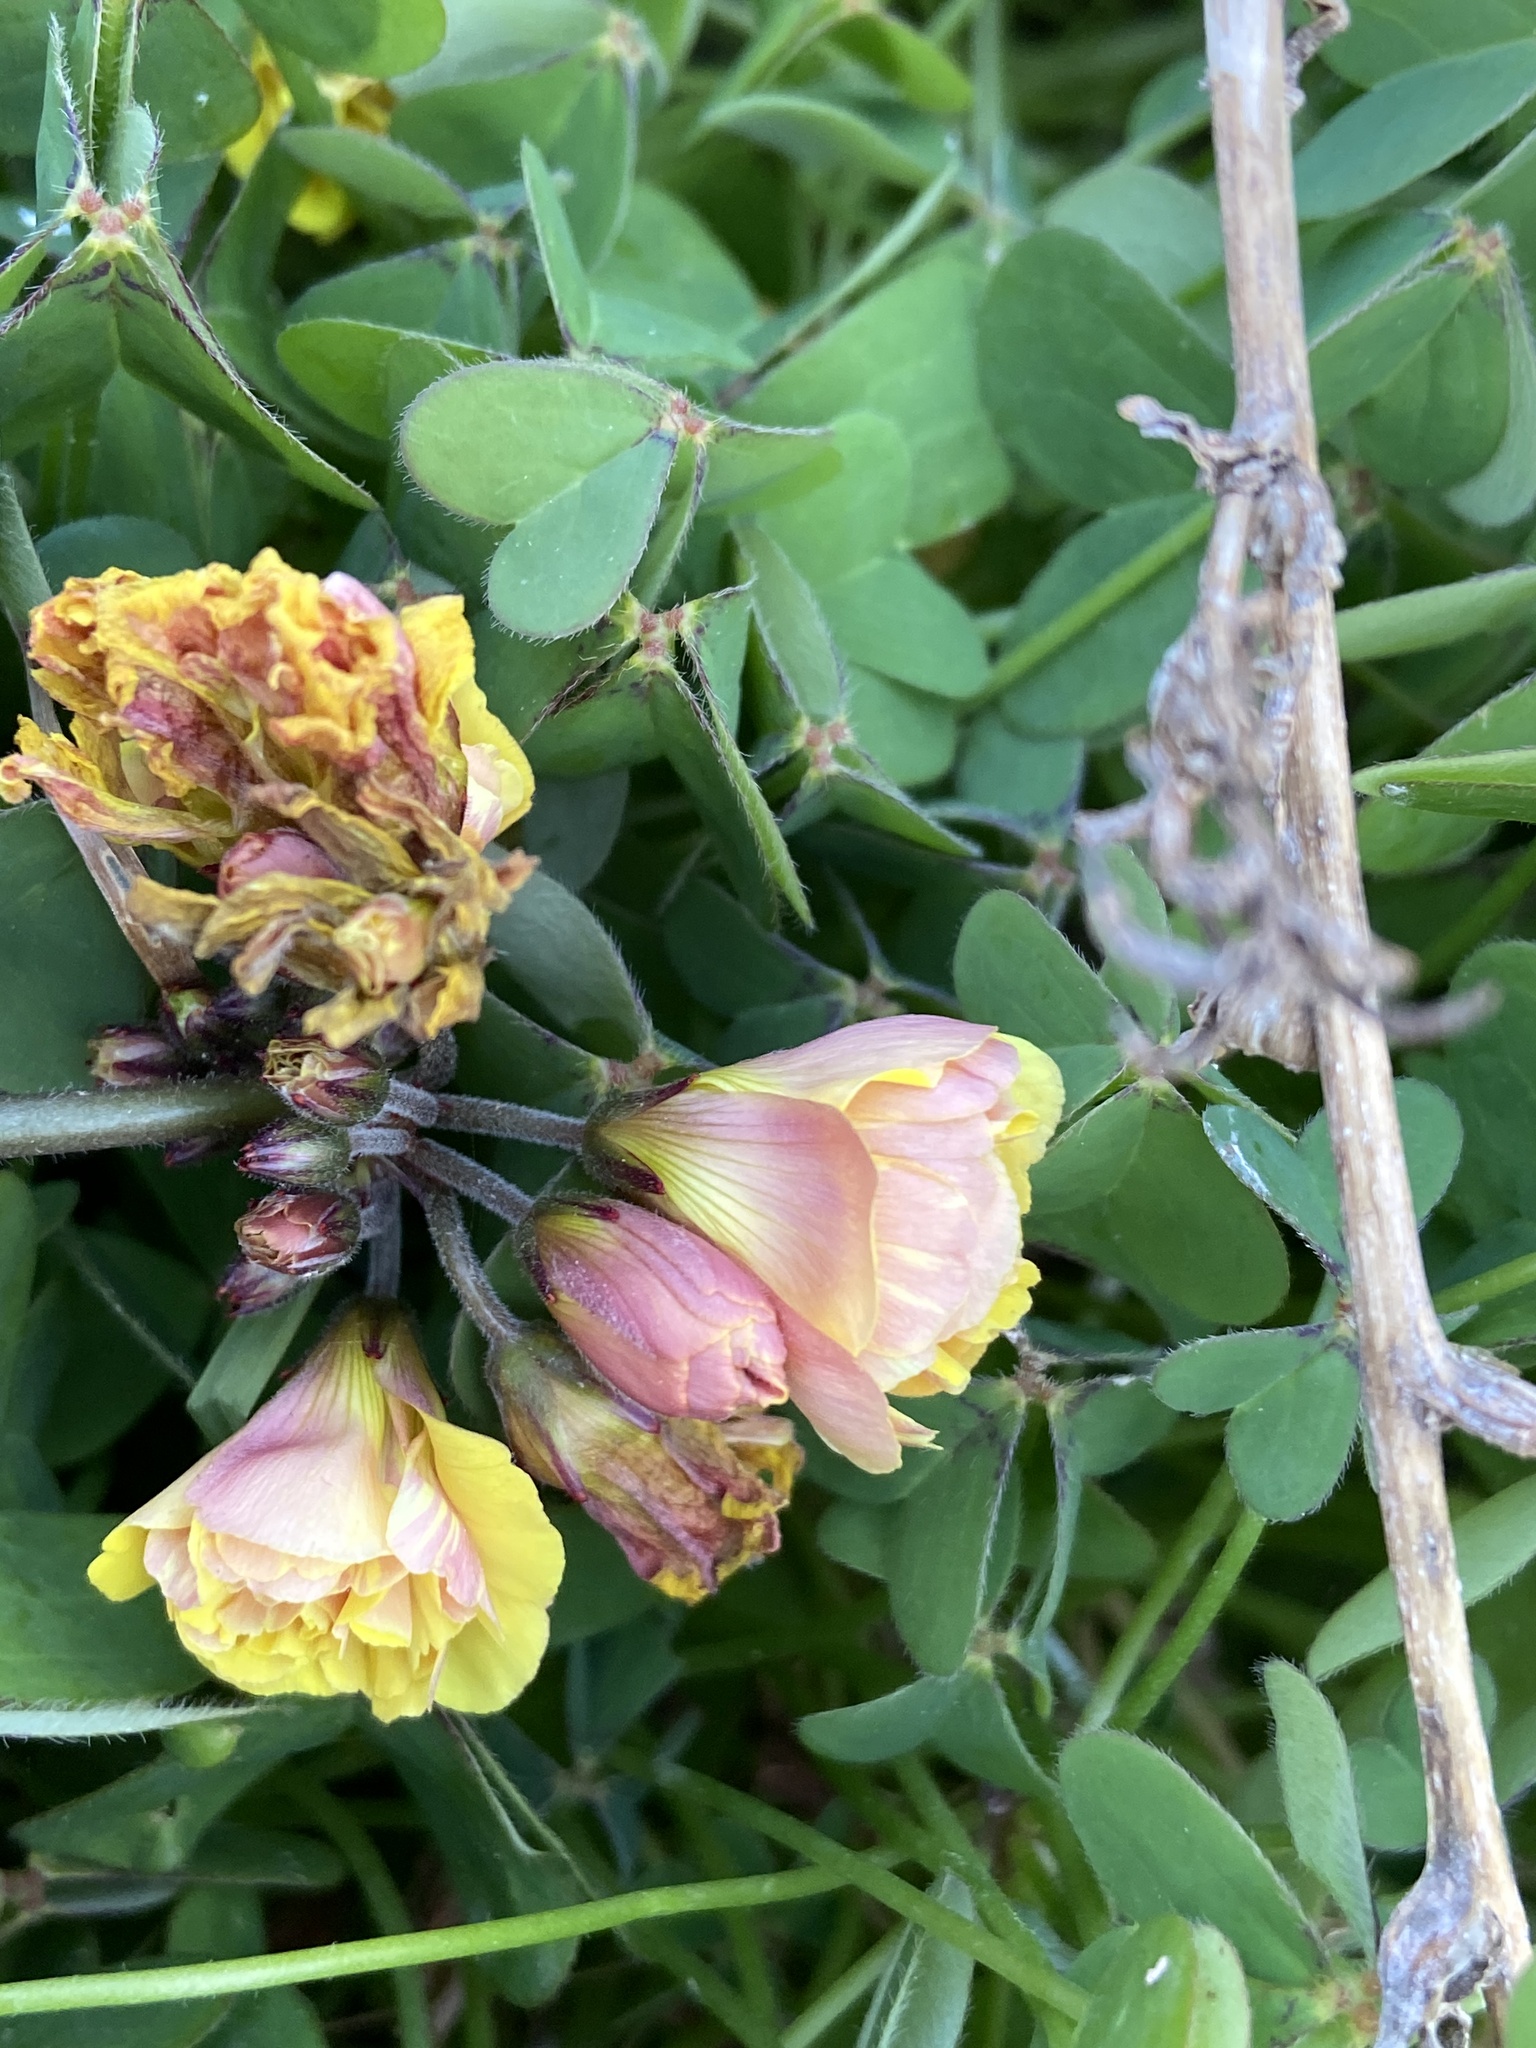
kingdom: Plantae
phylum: Tracheophyta
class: Magnoliopsida
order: Oxalidales
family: Oxalidaceae
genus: Oxalis
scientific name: Oxalis pes-caprae
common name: Bermuda-buttercup
